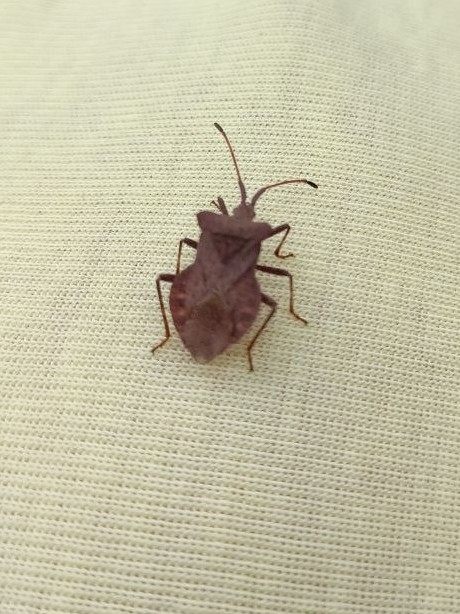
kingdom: Animalia
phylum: Arthropoda
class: Insecta
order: Hemiptera
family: Coreidae
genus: Coreus
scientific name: Coreus marginatus
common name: Dock bug
